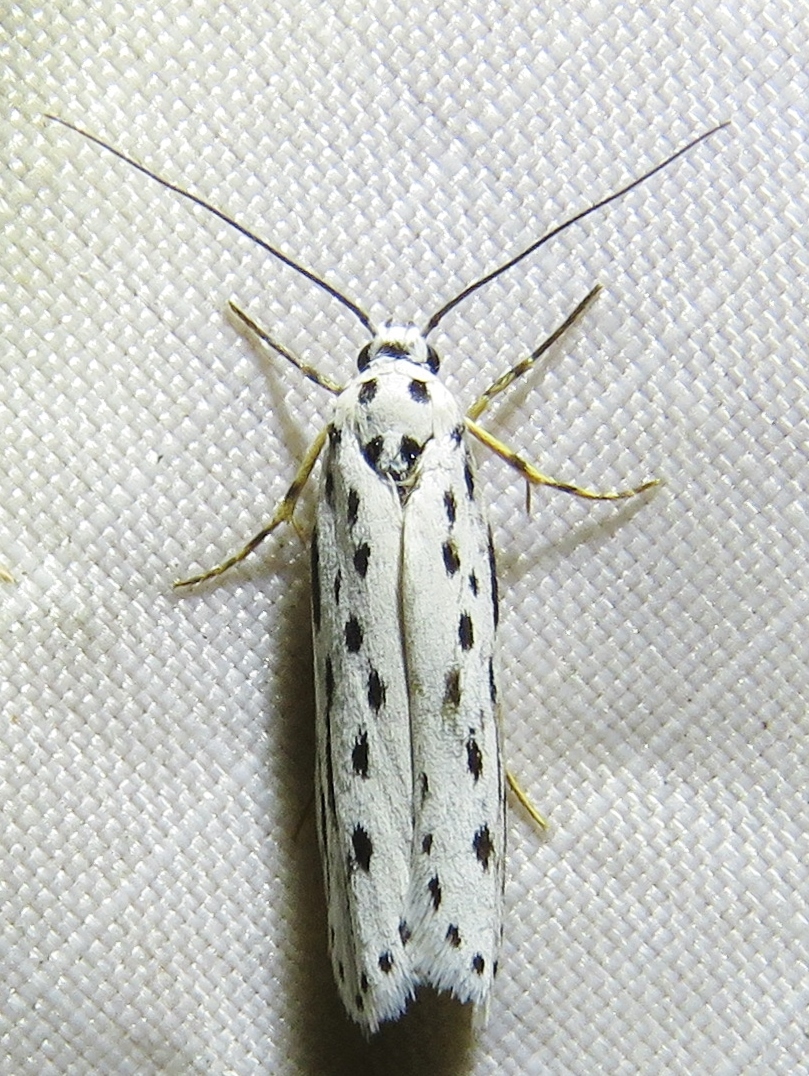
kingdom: Animalia
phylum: Arthropoda
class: Insecta
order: Lepidoptera
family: Ethmiidae
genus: Ethmia
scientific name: Ethmia zelleriella
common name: Zeller's ethmia
